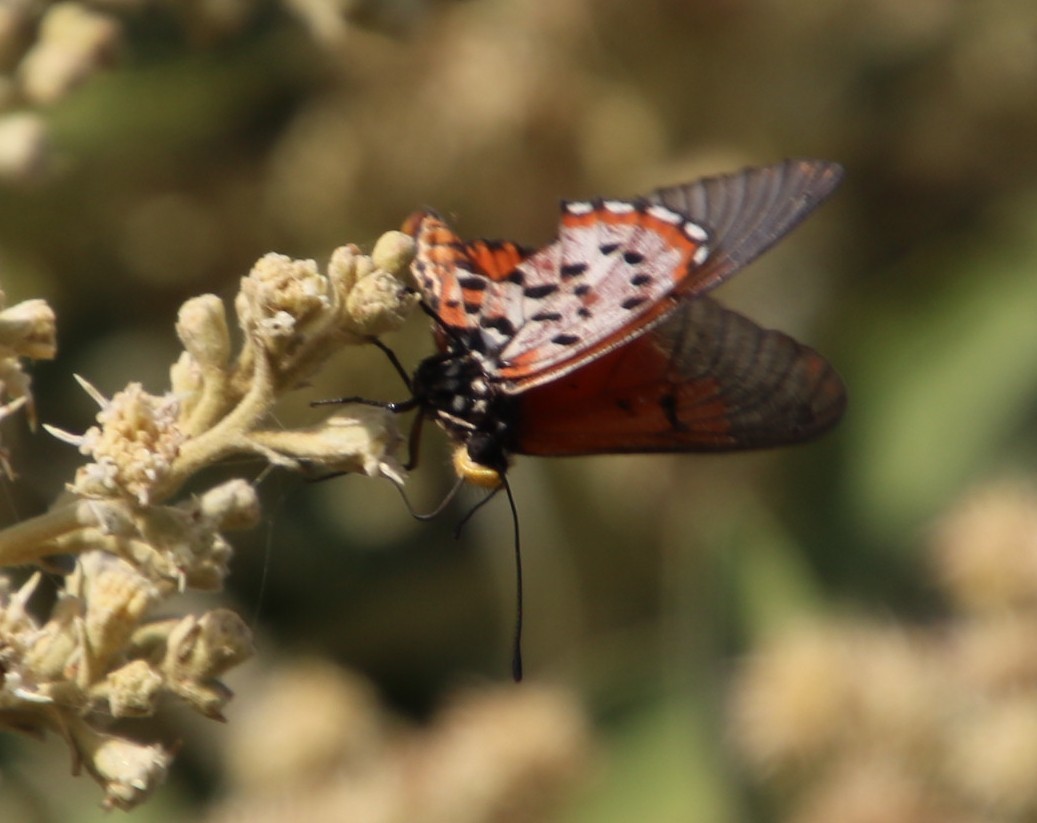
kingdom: Animalia
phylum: Arthropoda
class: Insecta
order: Lepidoptera
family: Nymphalidae
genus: Acraea
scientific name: Acraea horta
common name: Garden acraea
